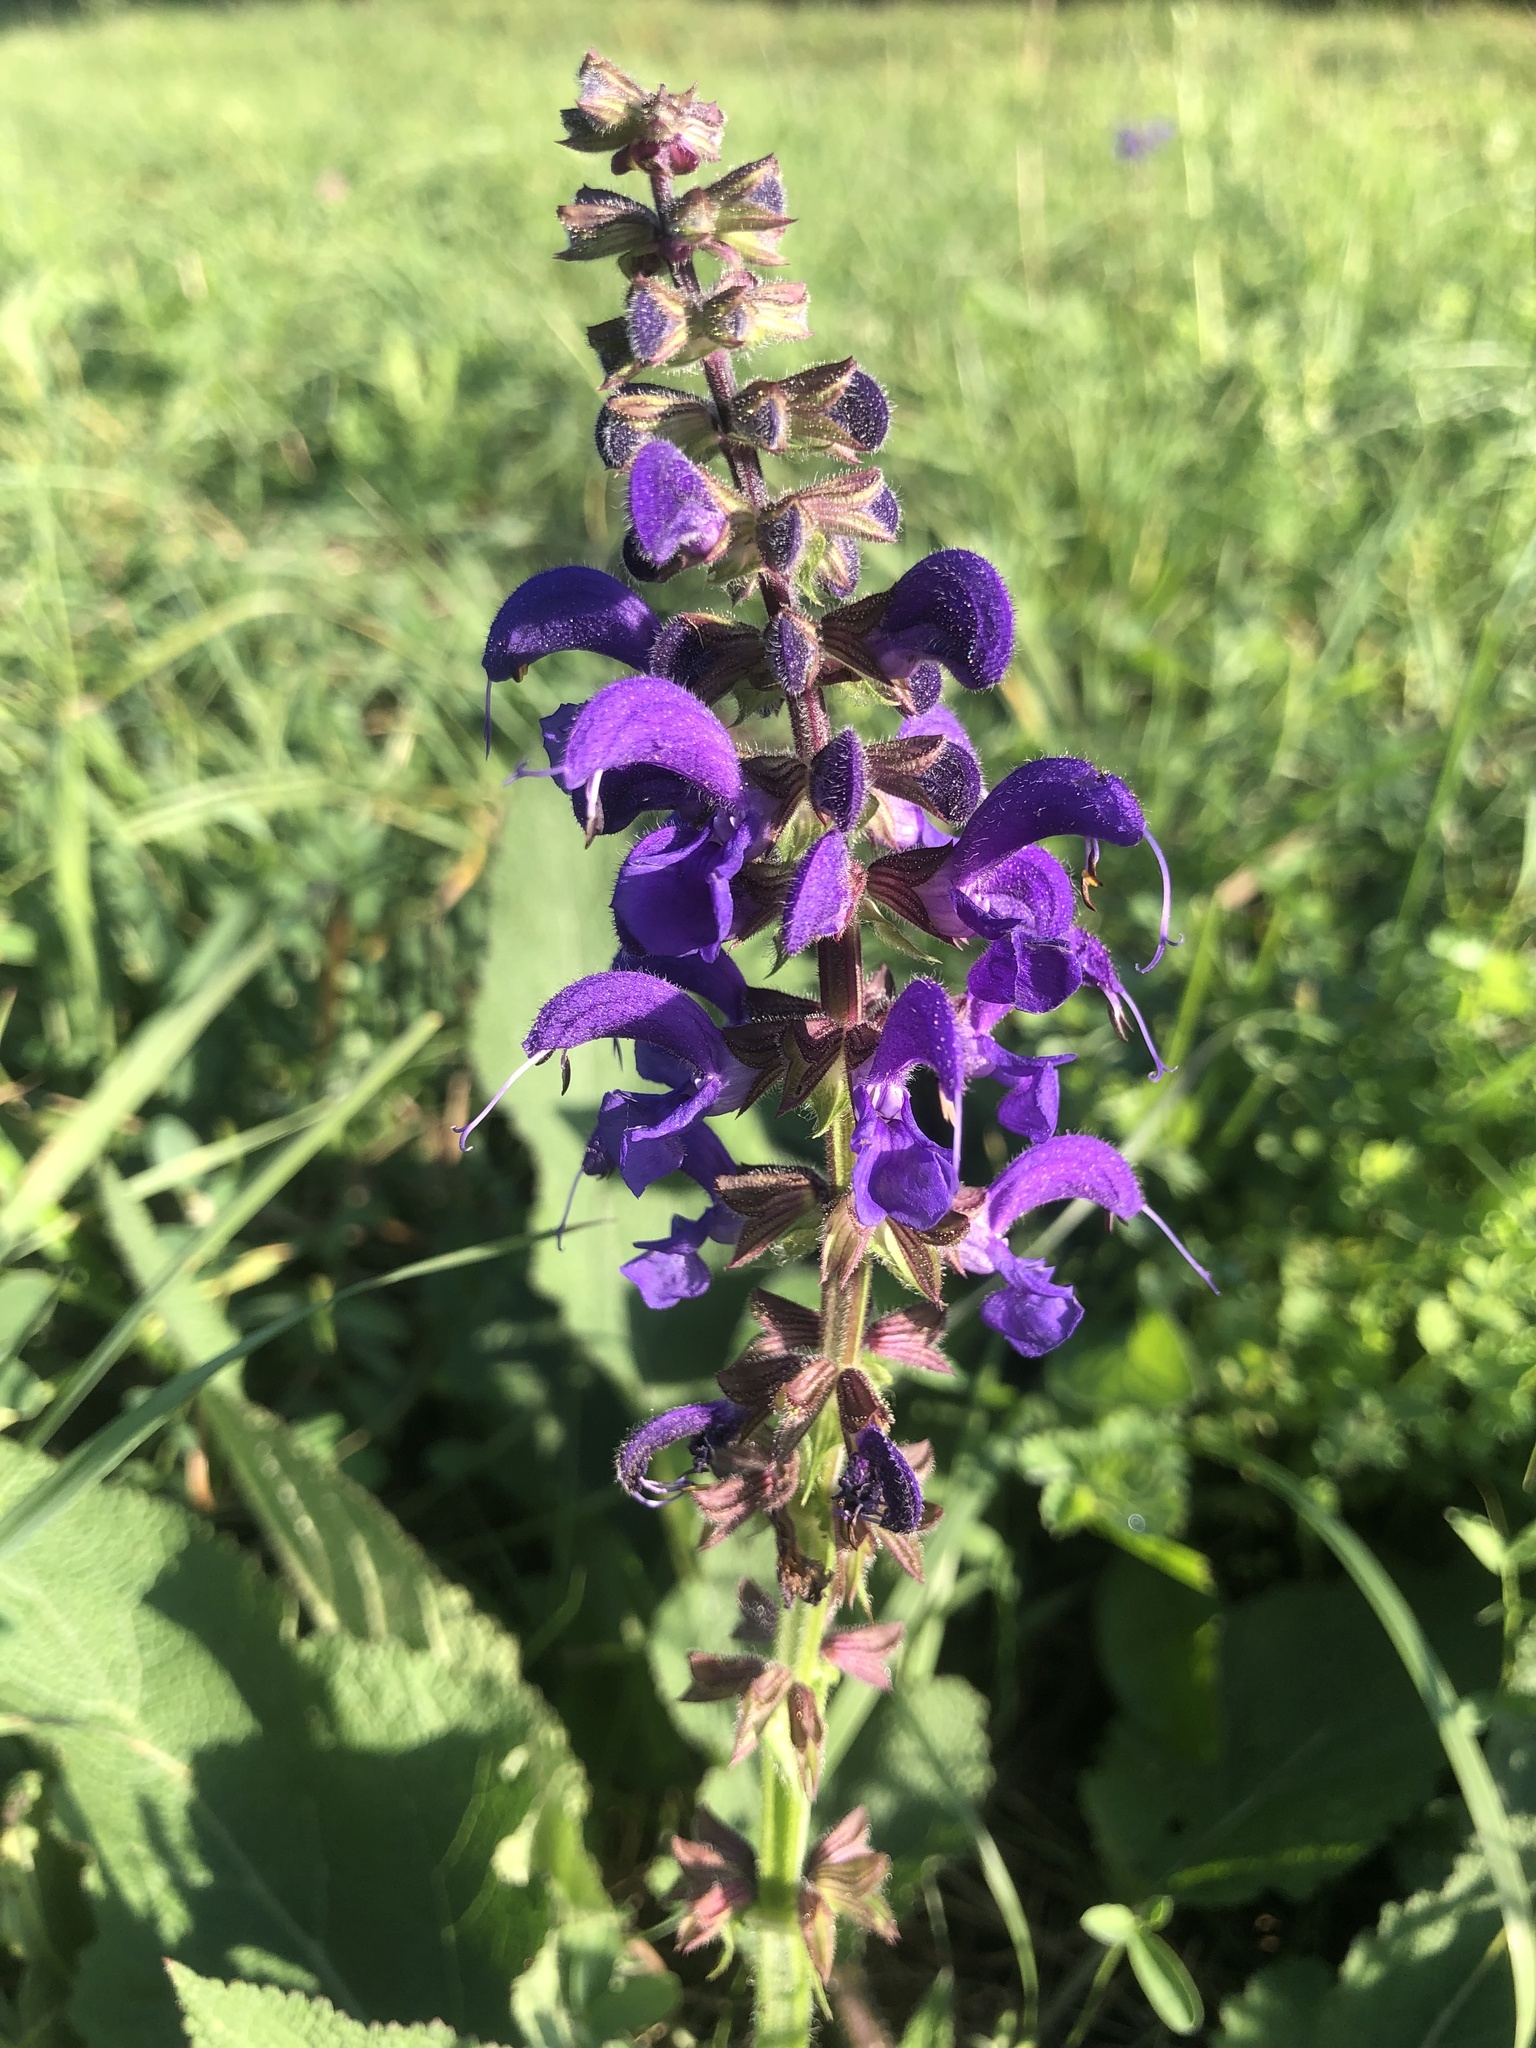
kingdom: Plantae
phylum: Tracheophyta
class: Magnoliopsida
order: Lamiales
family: Lamiaceae
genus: Salvia
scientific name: Salvia pratensis
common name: Meadow sage
